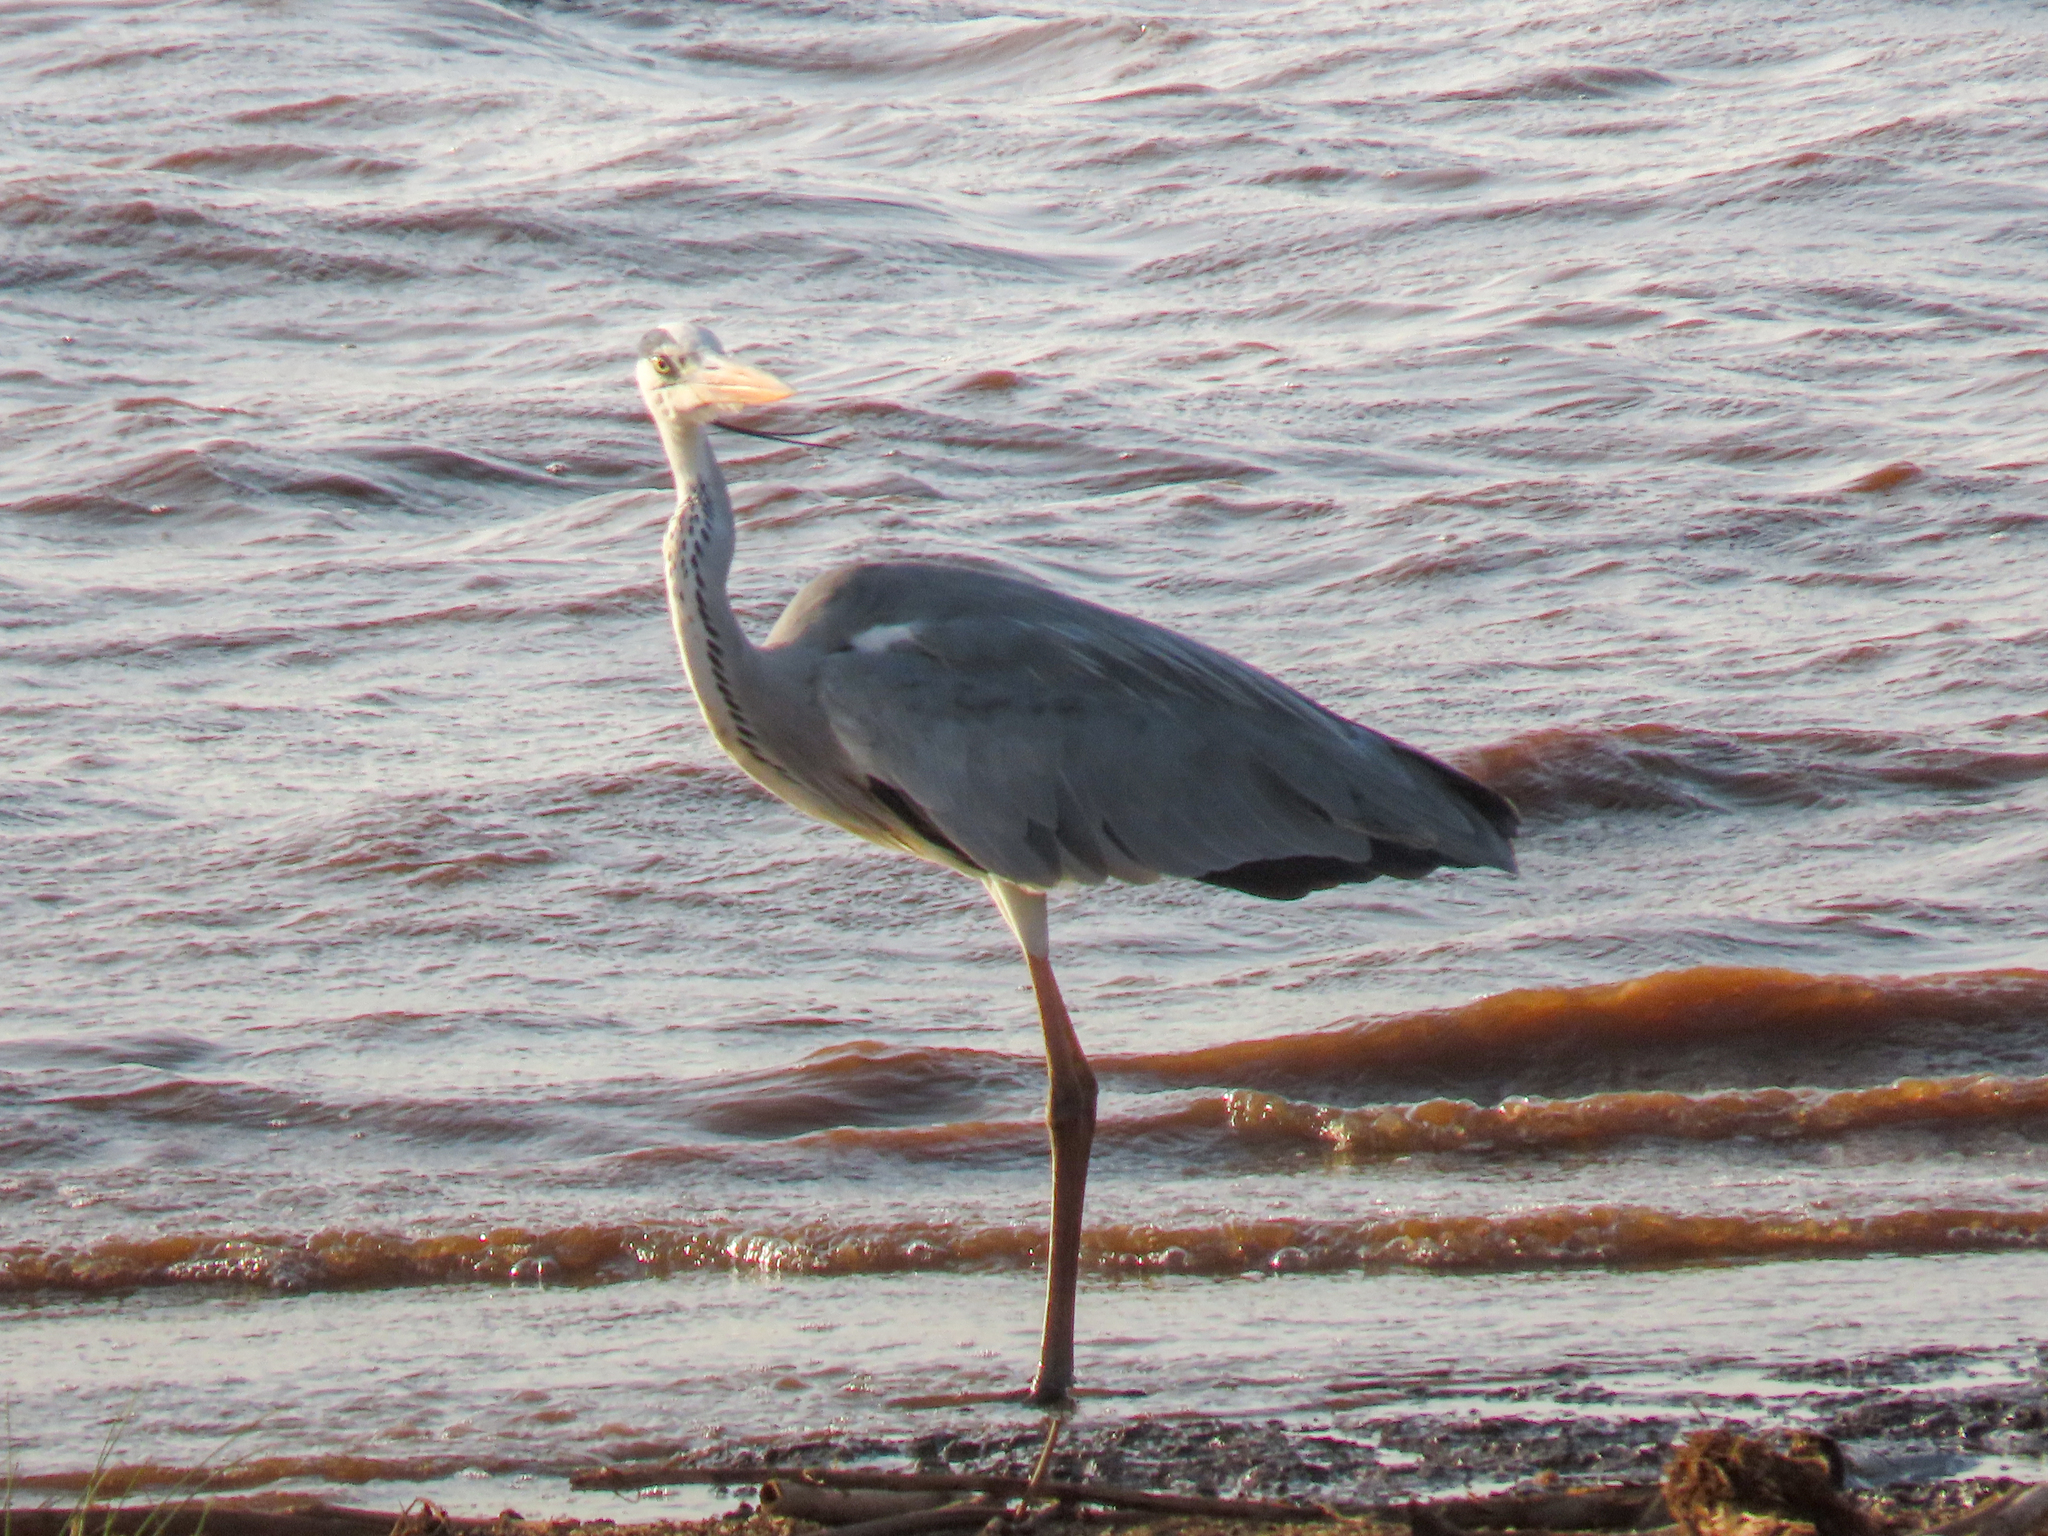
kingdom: Animalia
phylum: Chordata
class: Aves
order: Pelecaniformes
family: Ardeidae
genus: Ardea
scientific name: Ardea cinerea
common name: Grey heron
